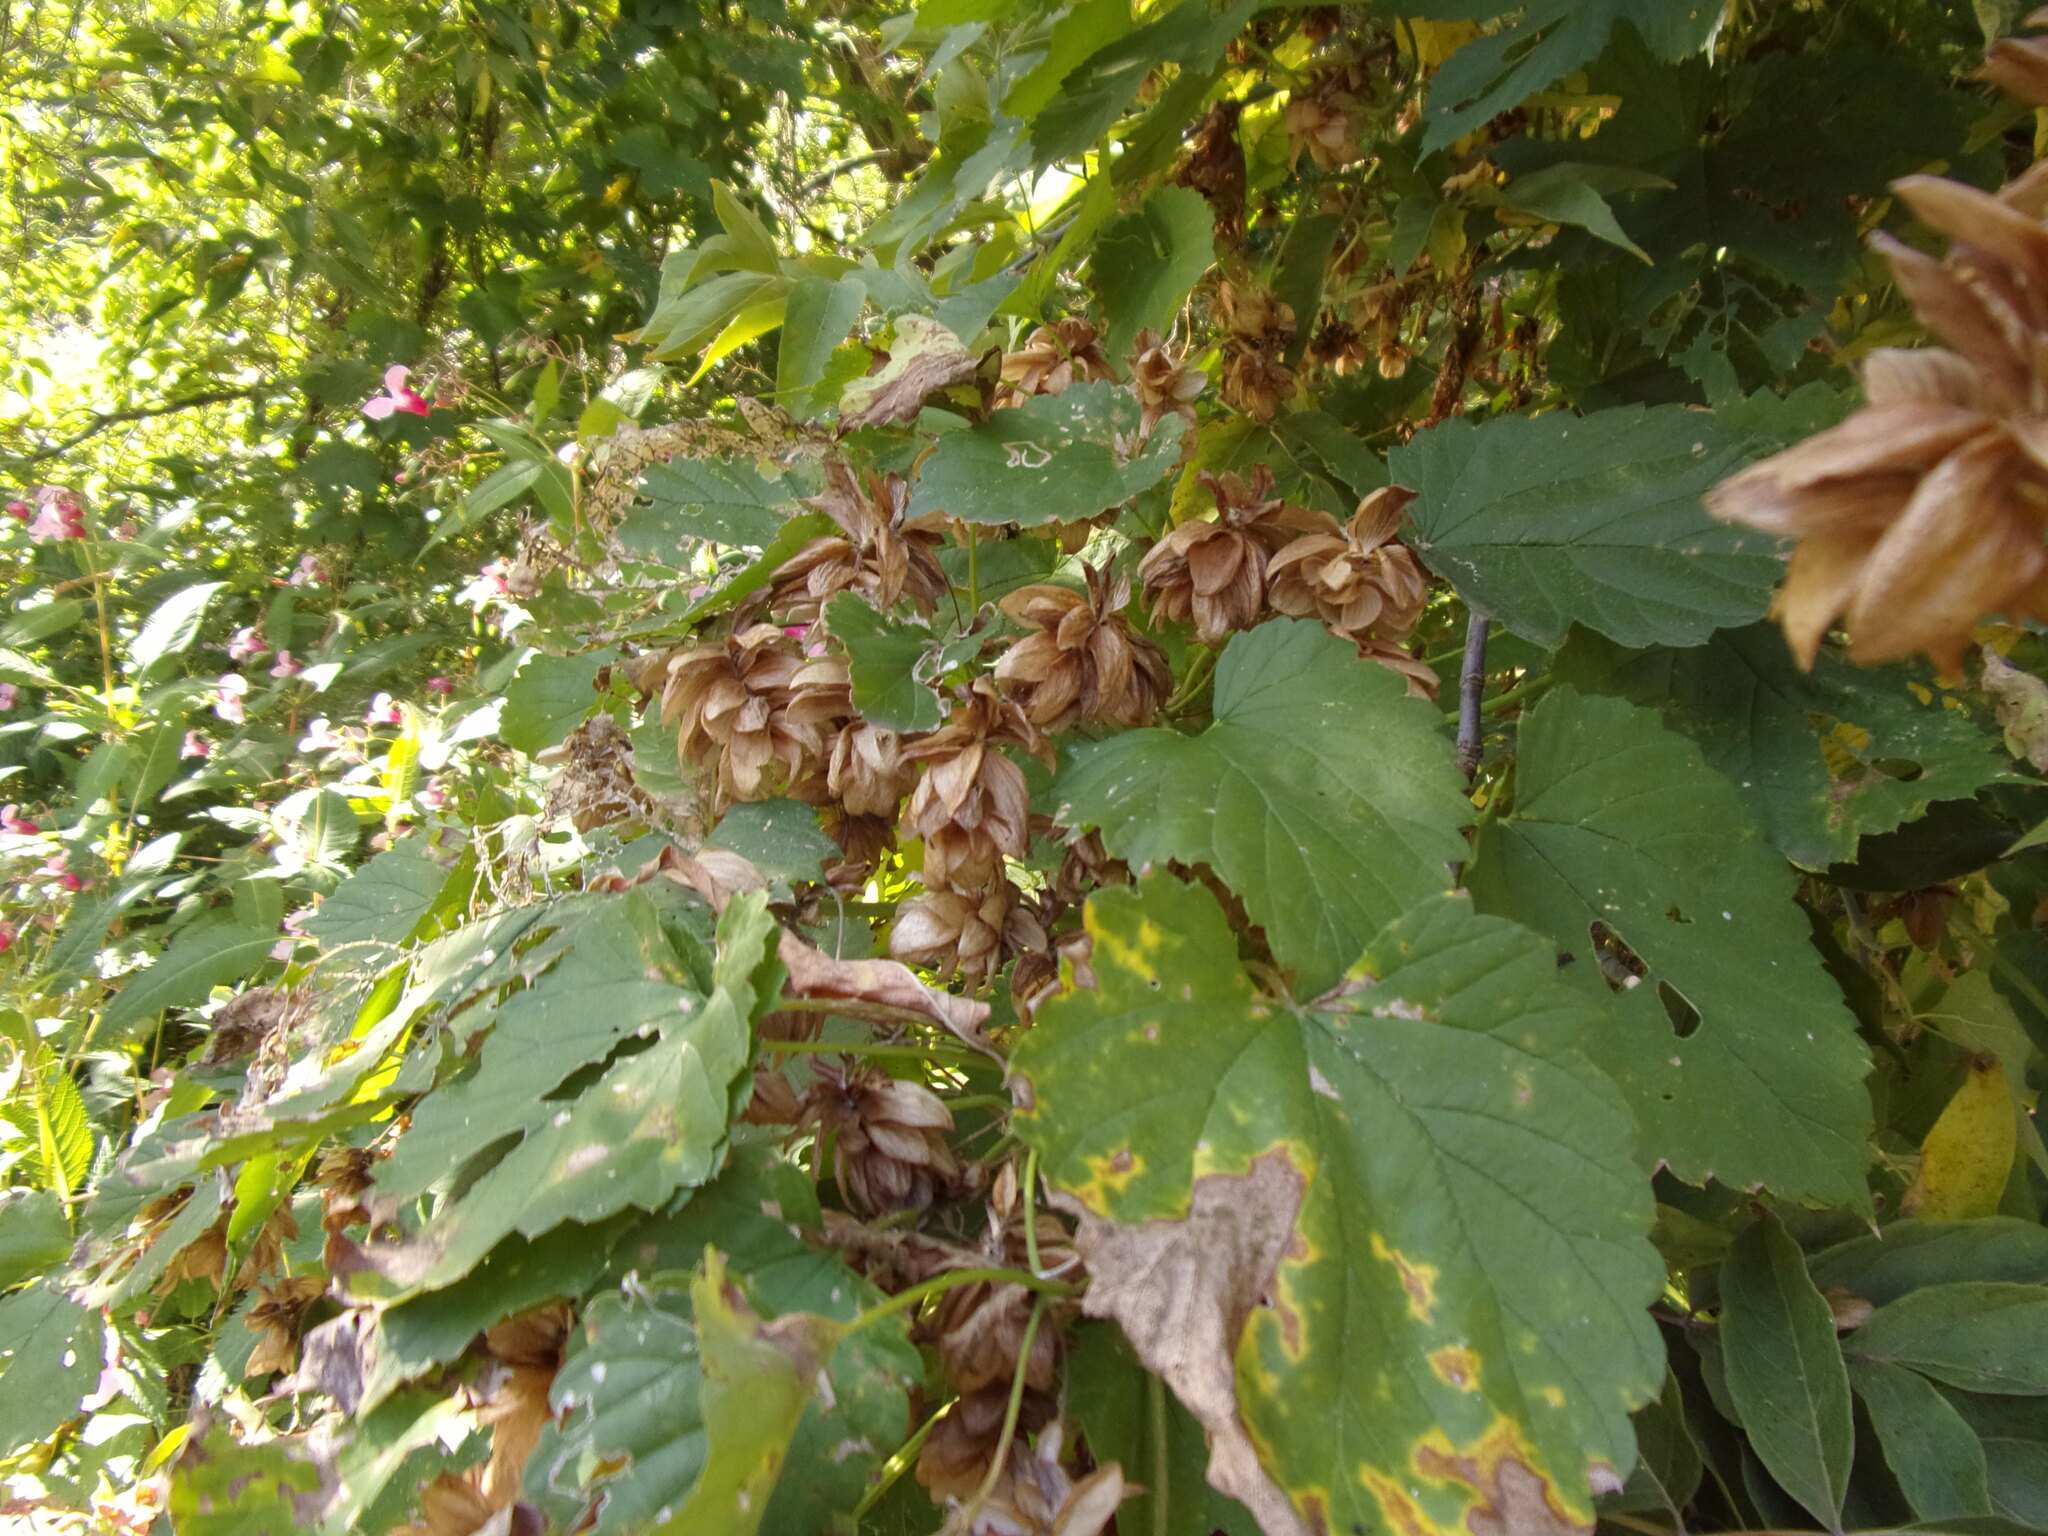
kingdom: Plantae
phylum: Tracheophyta
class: Magnoliopsida
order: Rosales
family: Cannabaceae
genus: Humulus
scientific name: Humulus lupulus
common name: Hop
